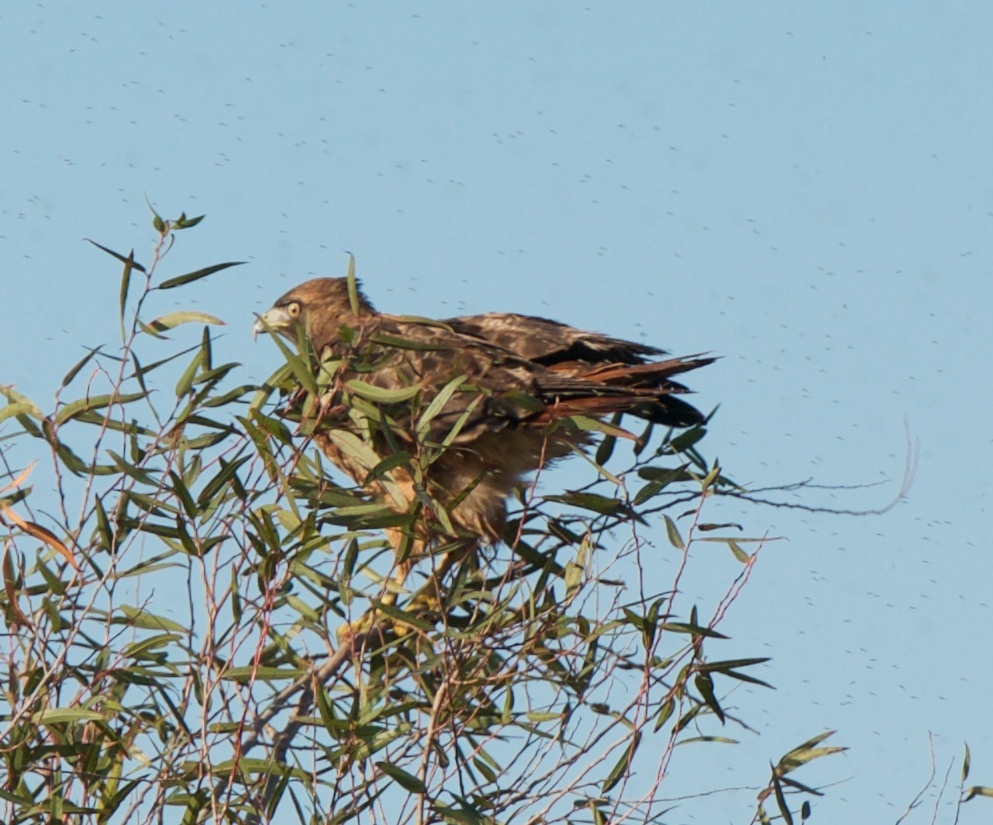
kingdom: Animalia
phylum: Chordata
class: Aves
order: Accipitriformes
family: Accipitridae
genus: Buteo
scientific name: Buteo jamaicensis
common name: Red-tailed hawk
